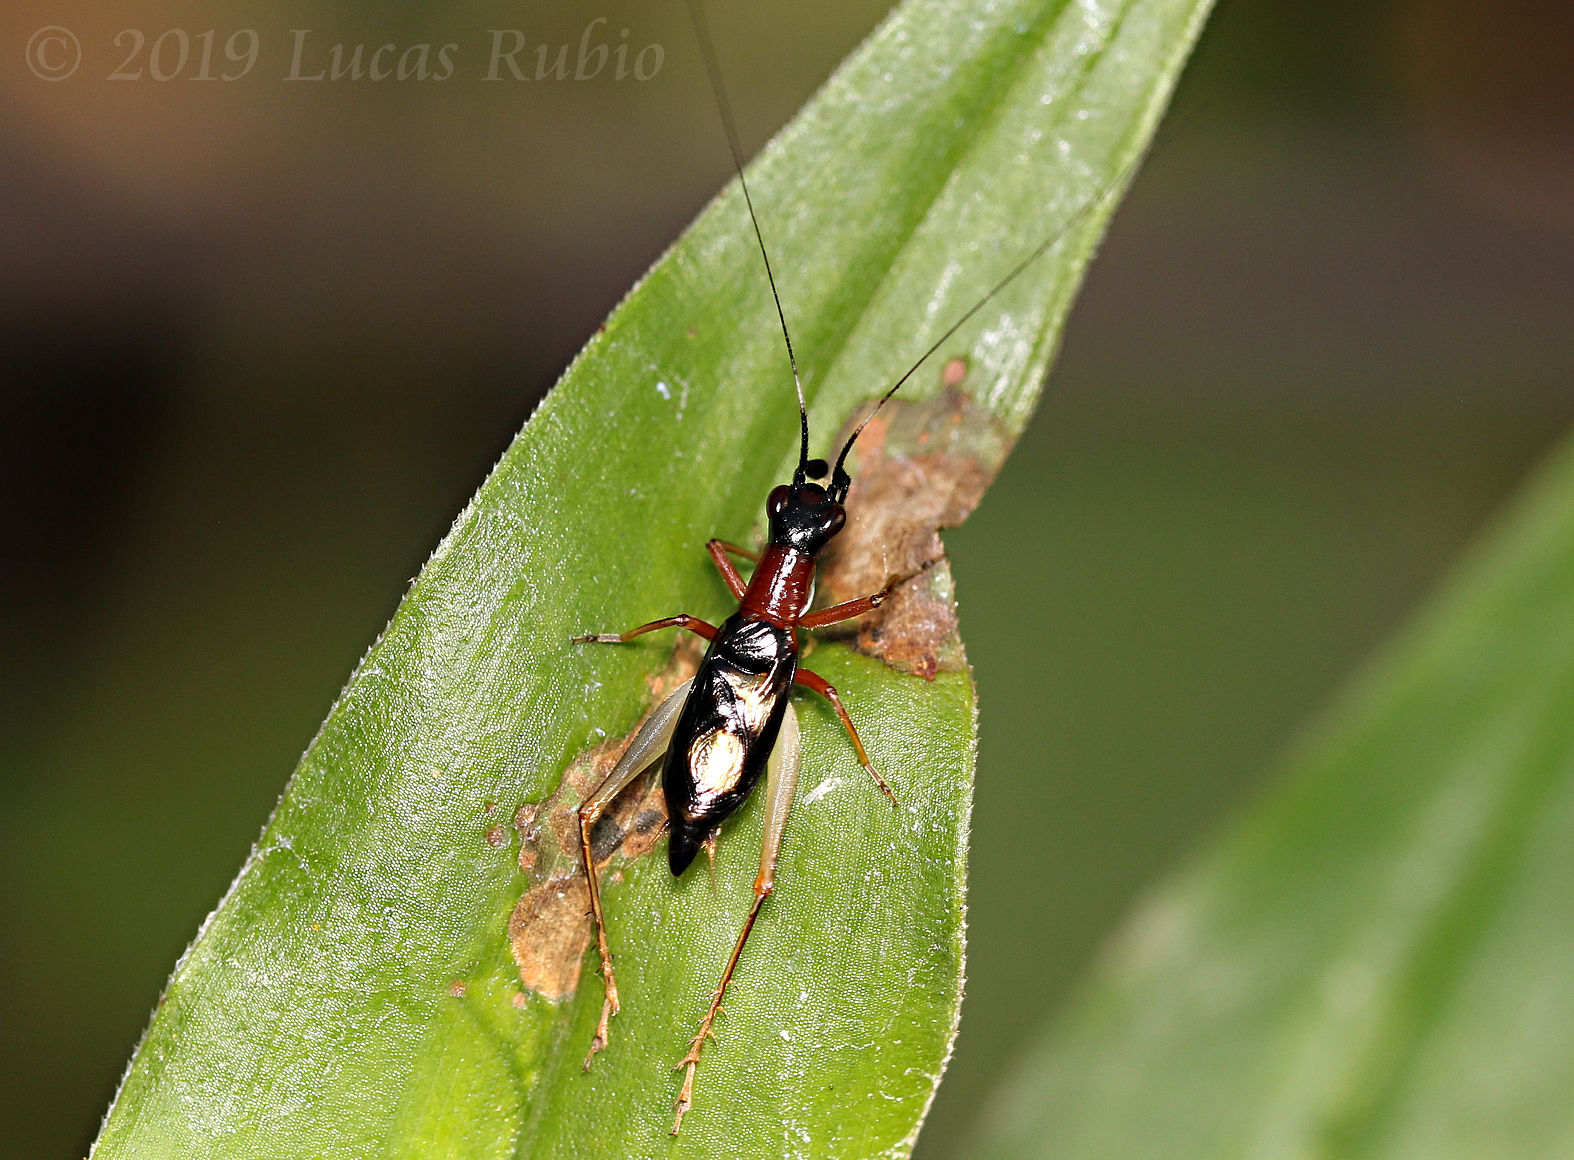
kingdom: Animalia
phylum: Arthropoda
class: Insecta
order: Orthoptera
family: Trigonidiidae
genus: Cranistus
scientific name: Cranistus colliurides
